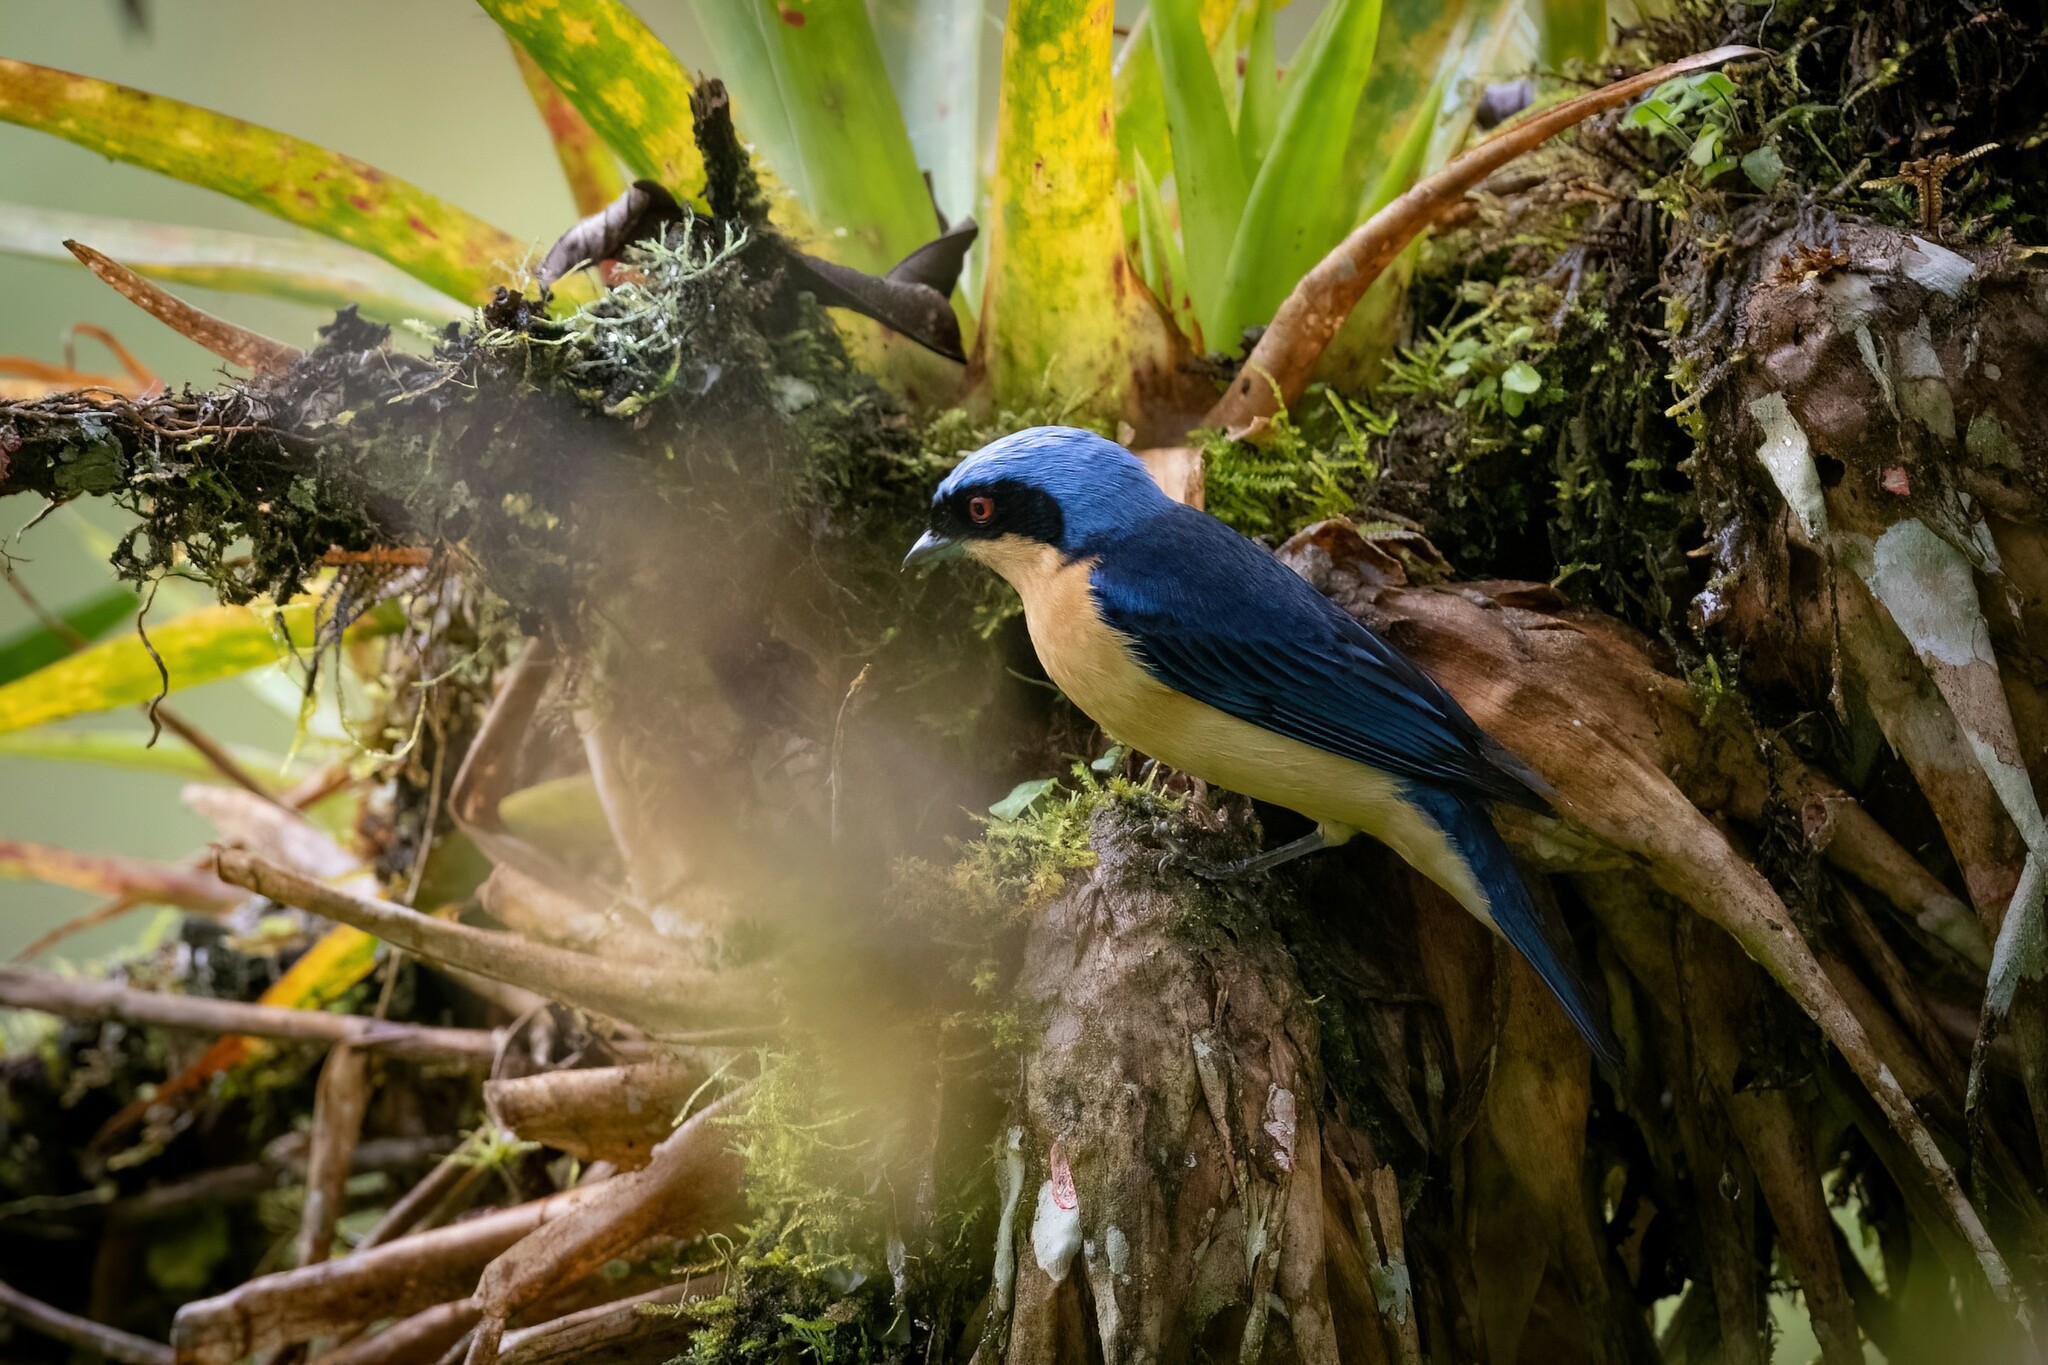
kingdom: Animalia
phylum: Chordata
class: Aves
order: Passeriformes
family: Thraupidae
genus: Pipraeidea
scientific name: Pipraeidea melanonota
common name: Fawn-breasted tanager
